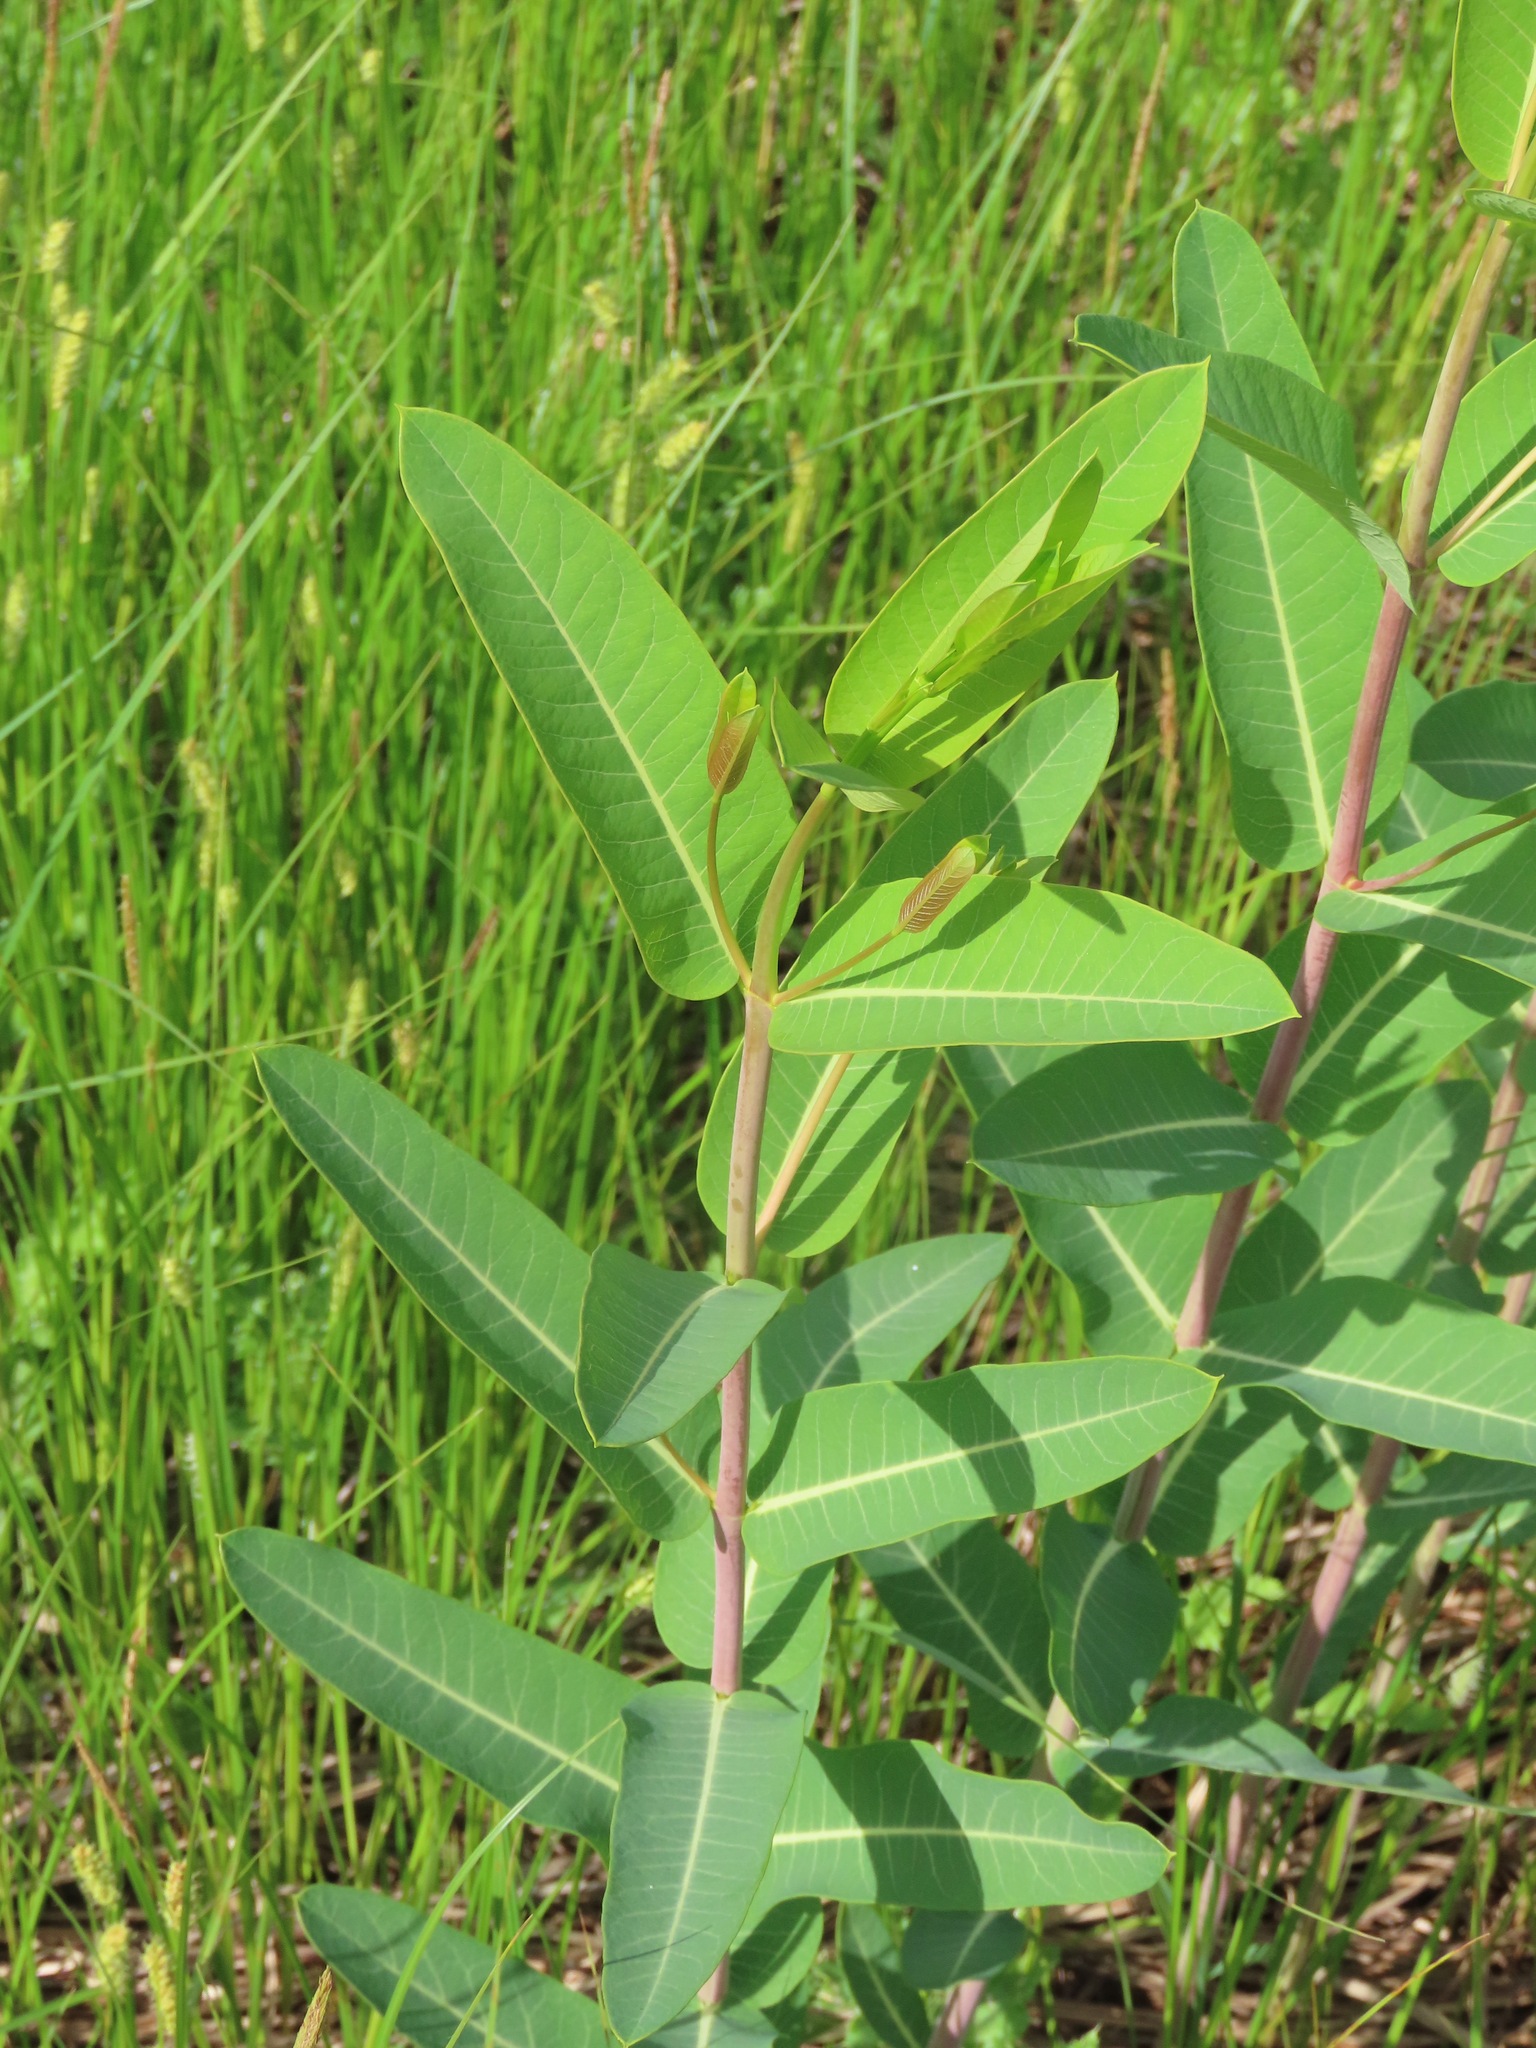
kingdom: Plantae
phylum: Tracheophyta
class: Magnoliopsida
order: Gentianales
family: Apocynaceae
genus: Apocynum
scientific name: Apocynum cannabinum
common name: Hemp dogbane
